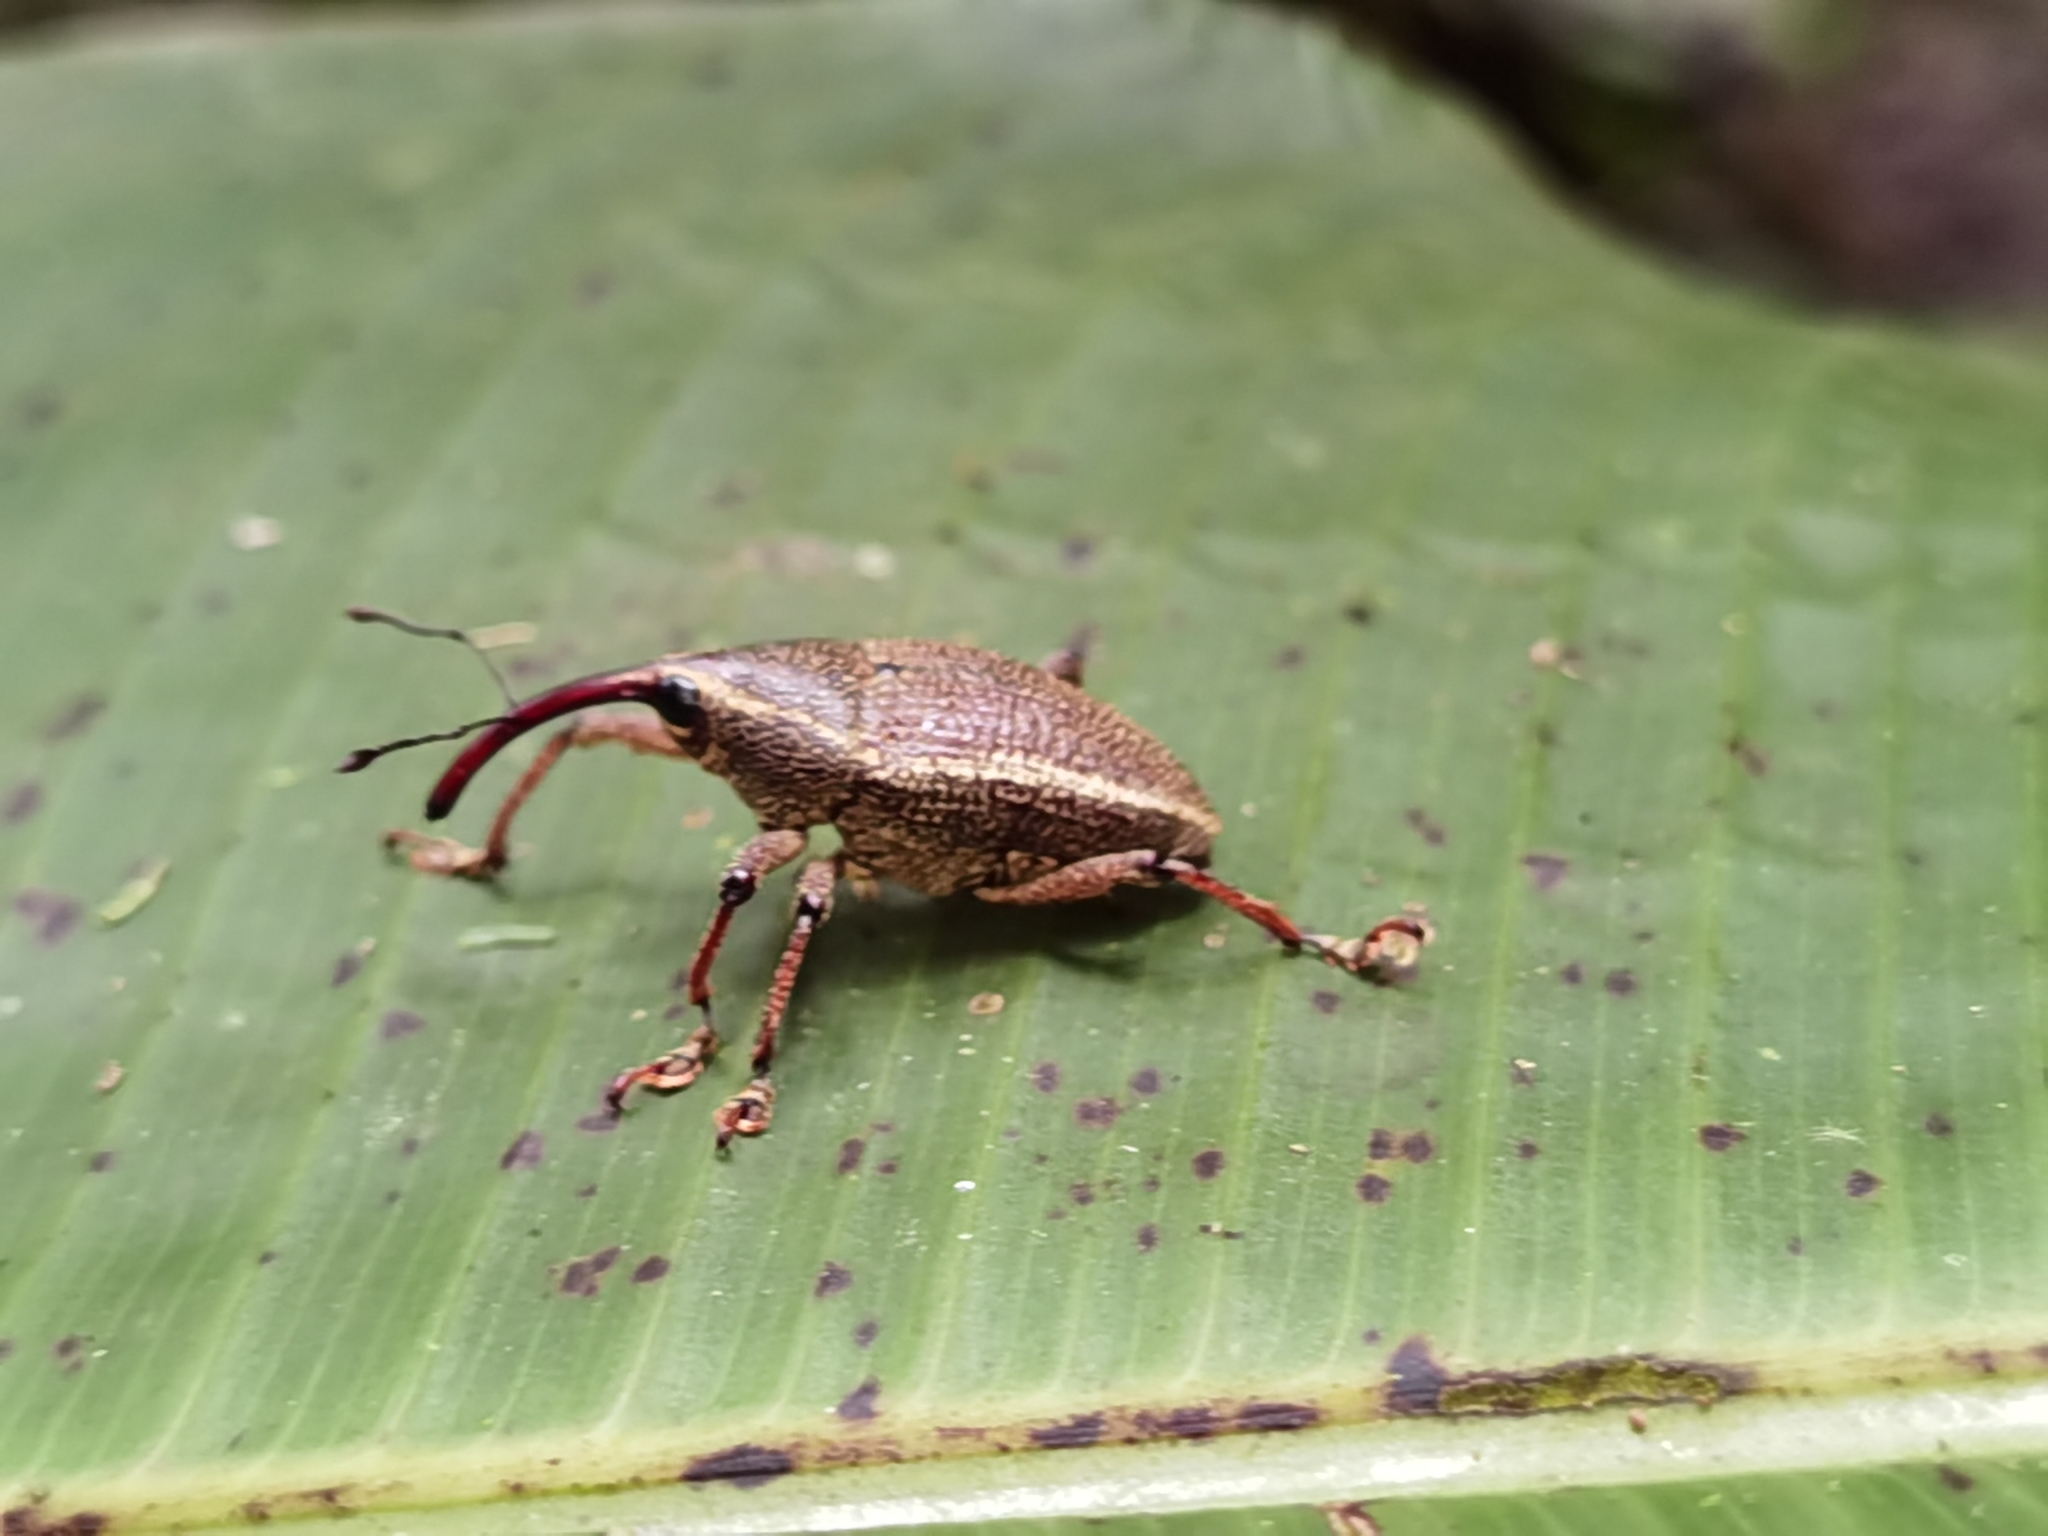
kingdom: Animalia
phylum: Arthropoda
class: Insecta
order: Coleoptera
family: Curculionidae
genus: Cholus
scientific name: Cholus cinctus
